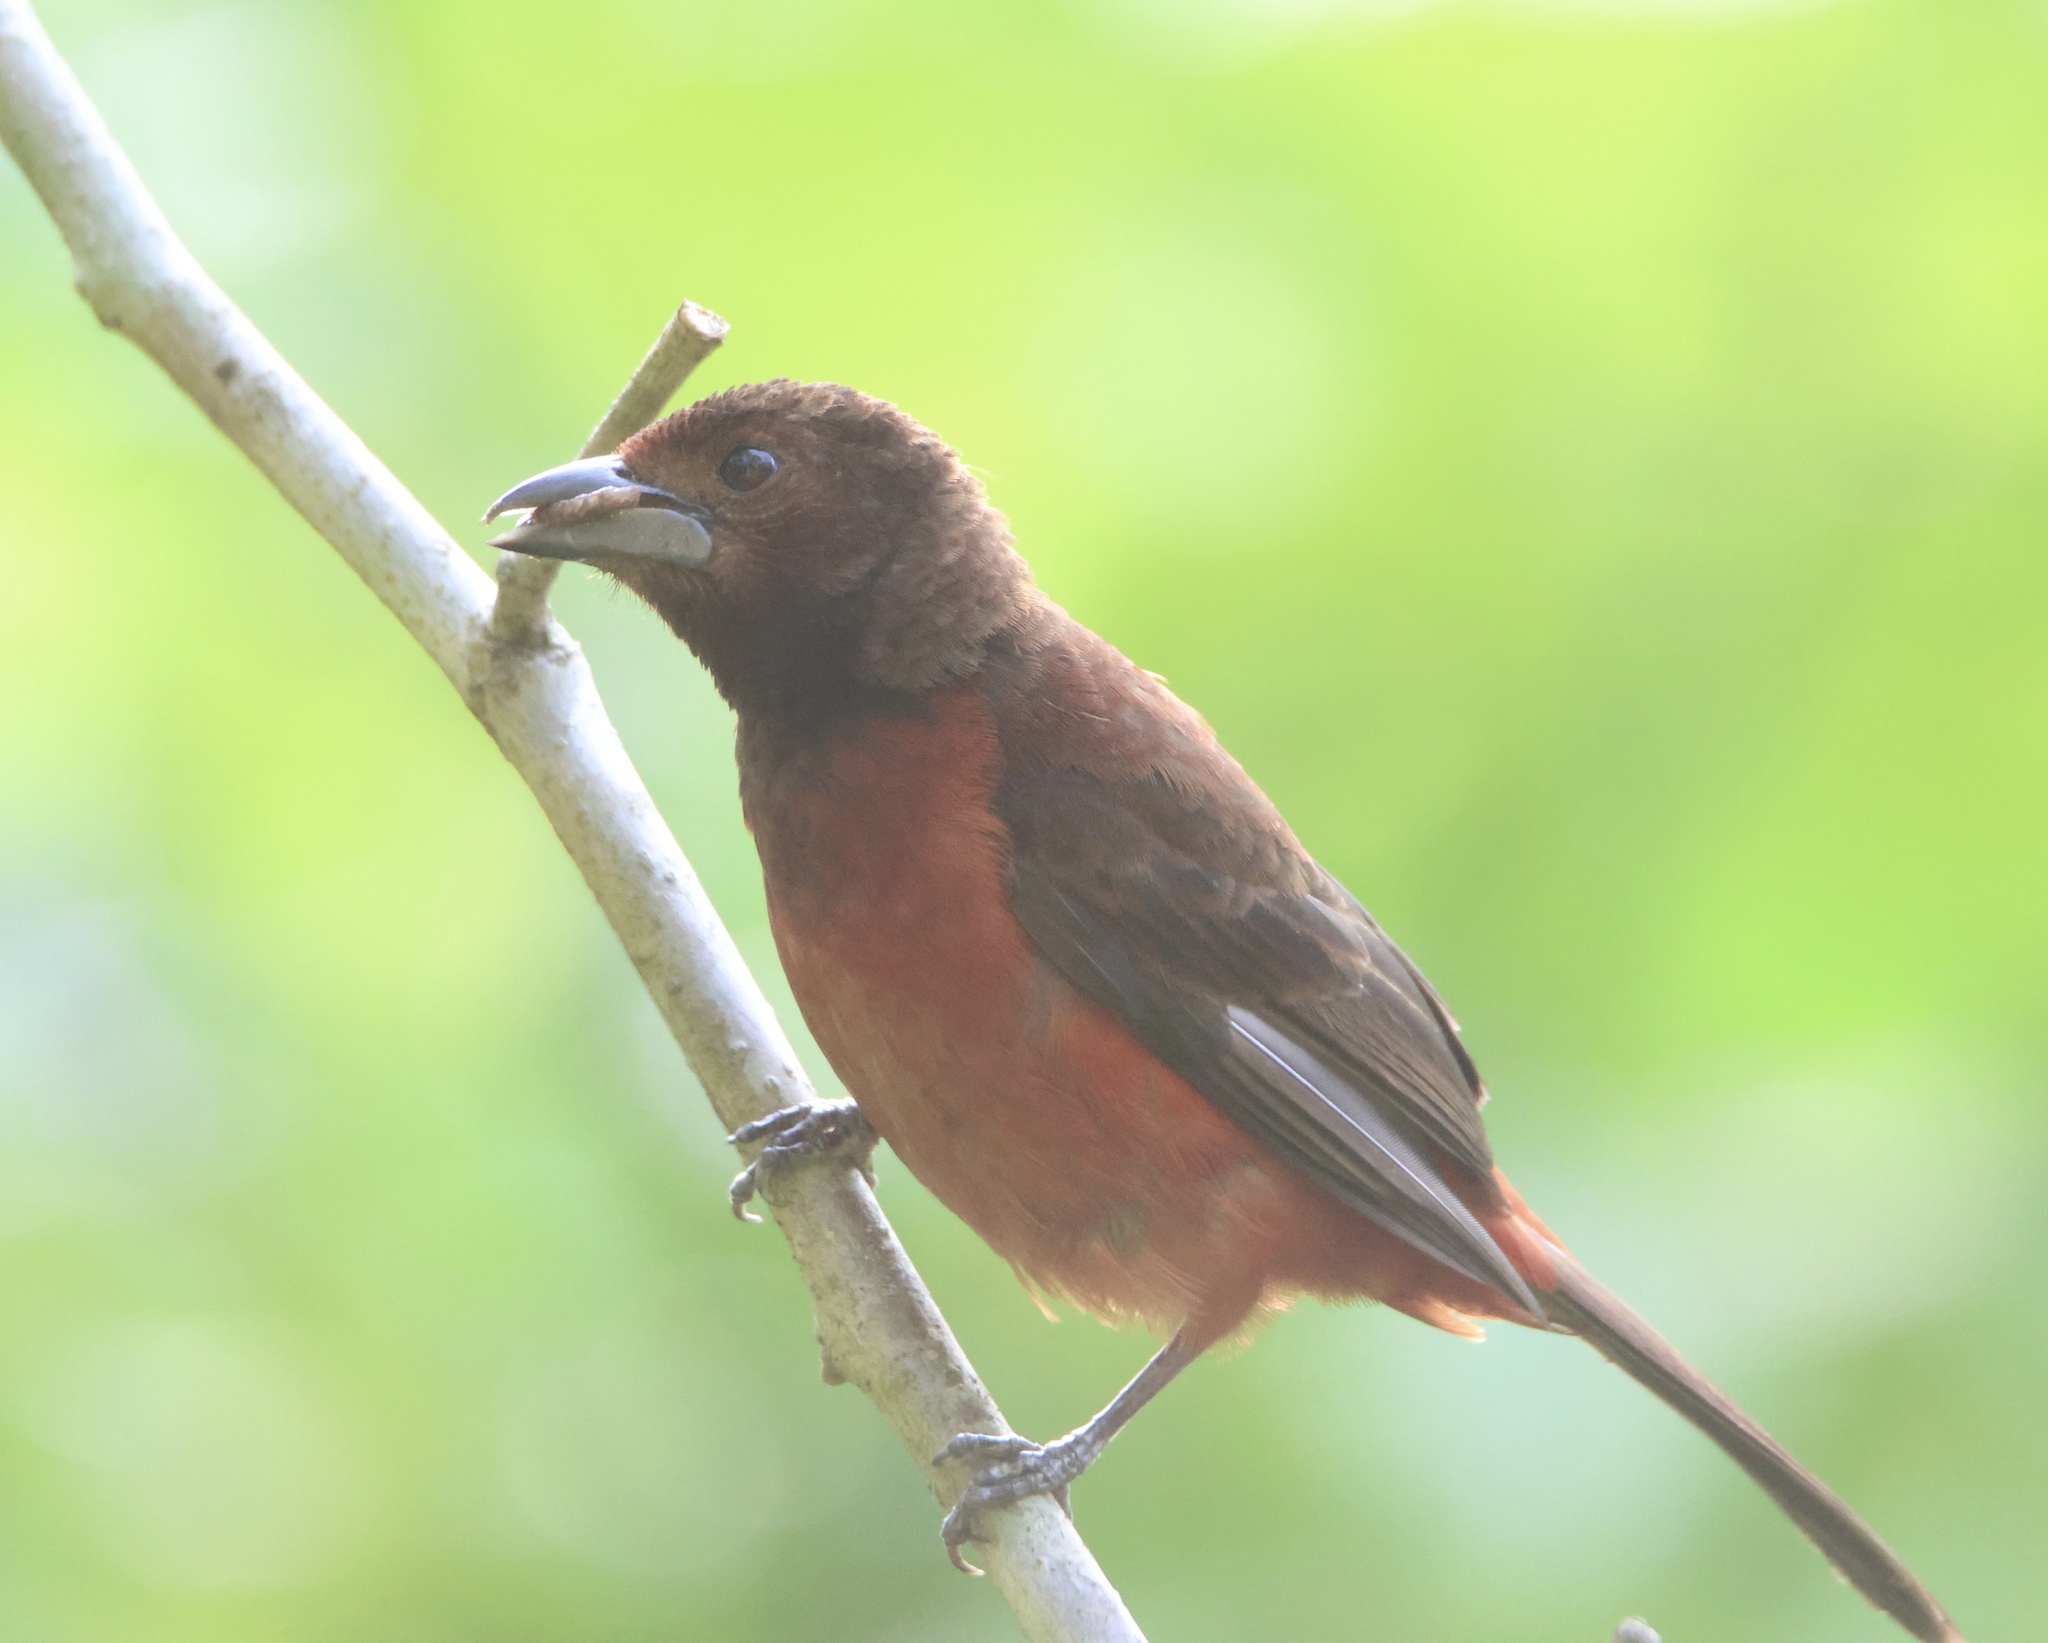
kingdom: Animalia
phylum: Chordata
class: Aves
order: Passeriformes
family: Thraupidae
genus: Ramphocelus
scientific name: Ramphocelus dimidiatus
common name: Crimson-backed tanager
